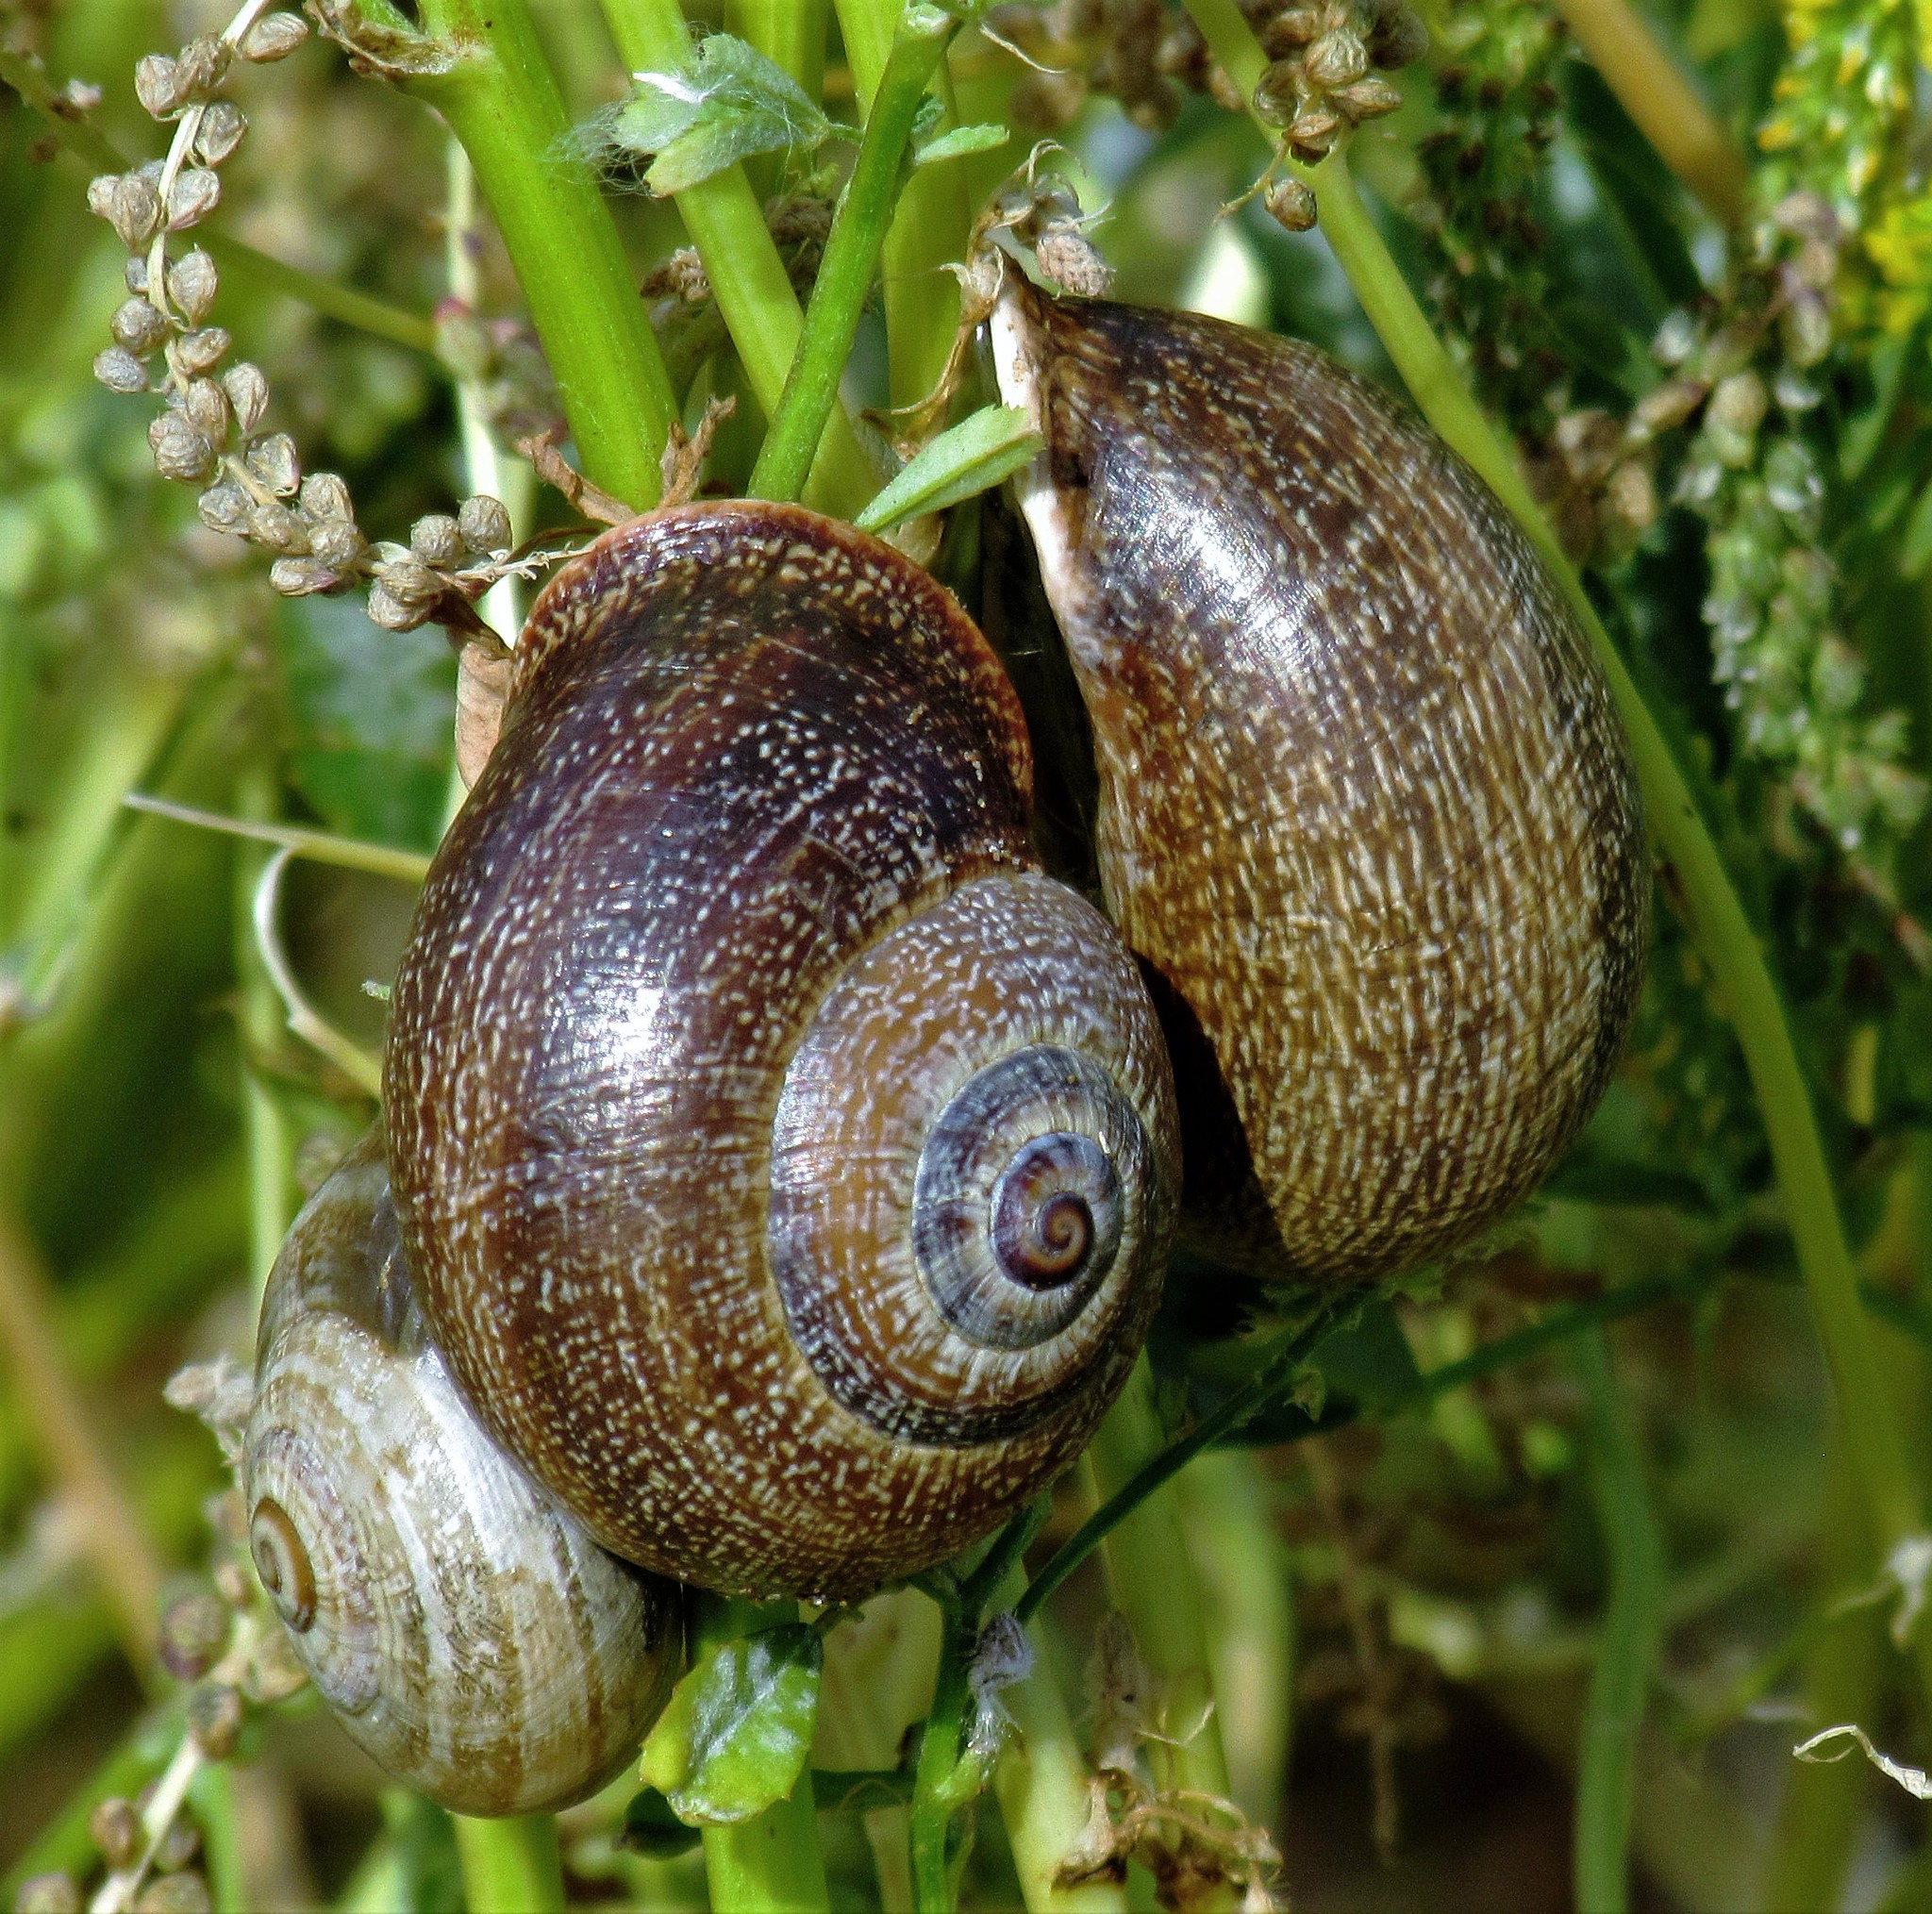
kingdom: Animalia
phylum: Mollusca
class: Gastropoda
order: Stylommatophora
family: Helicidae
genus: Otala
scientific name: Otala punctata
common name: Milk snail
